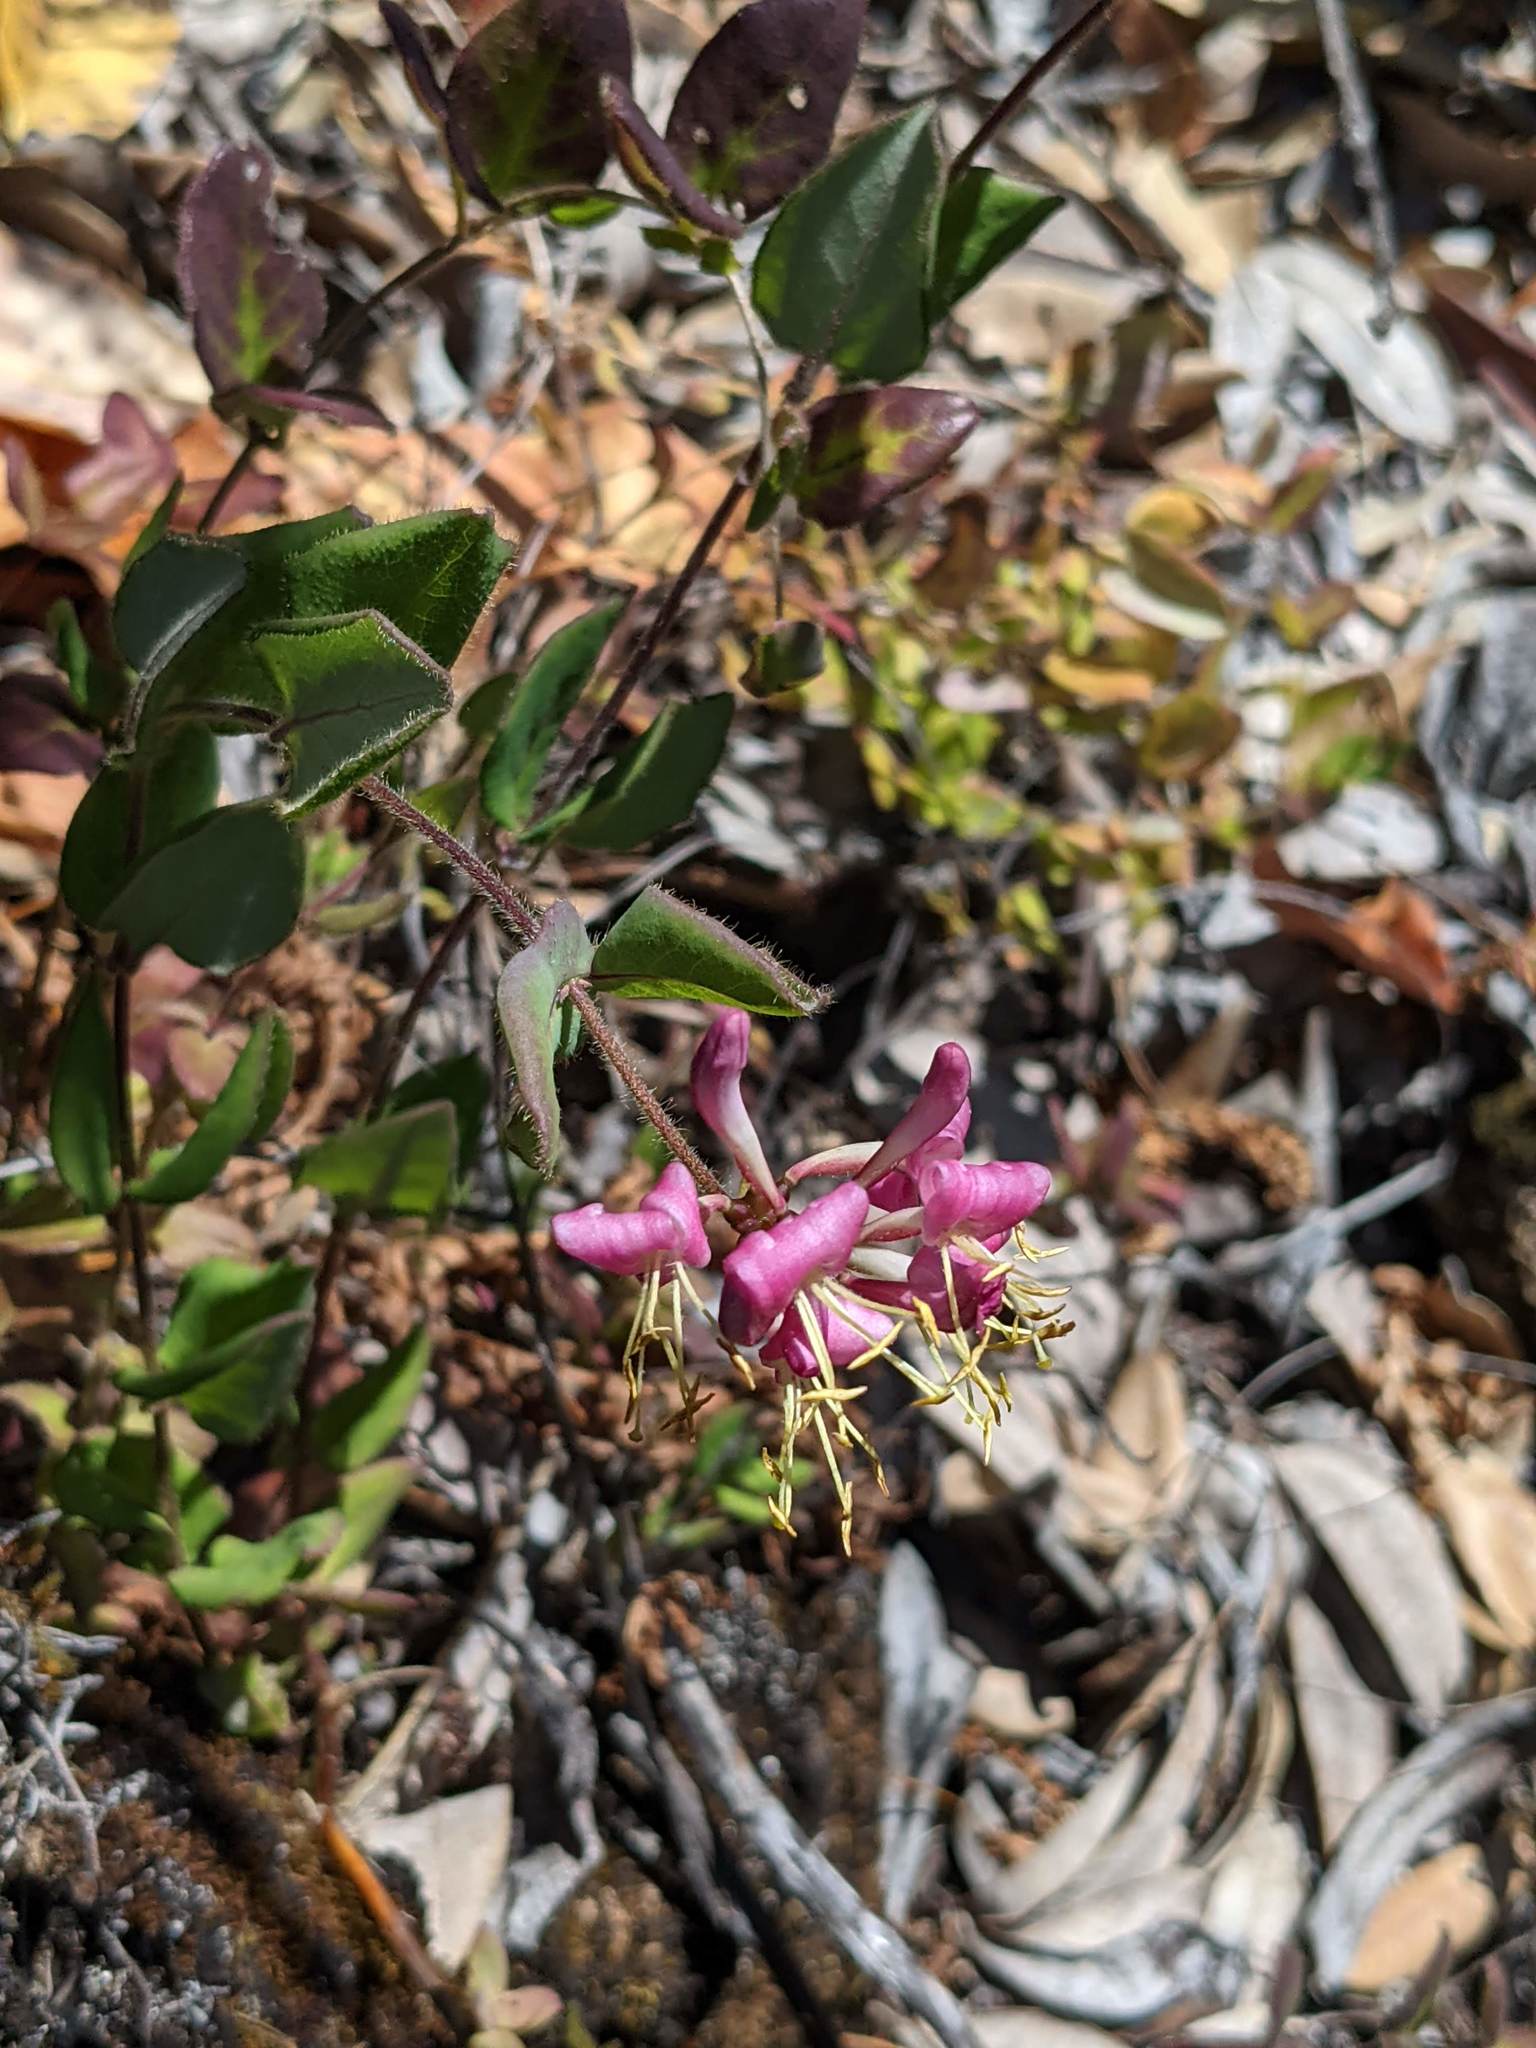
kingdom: Plantae
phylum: Tracheophyta
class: Magnoliopsida
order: Dipsacales
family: Caprifoliaceae
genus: Lonicera
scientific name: Lonicera hispidula
